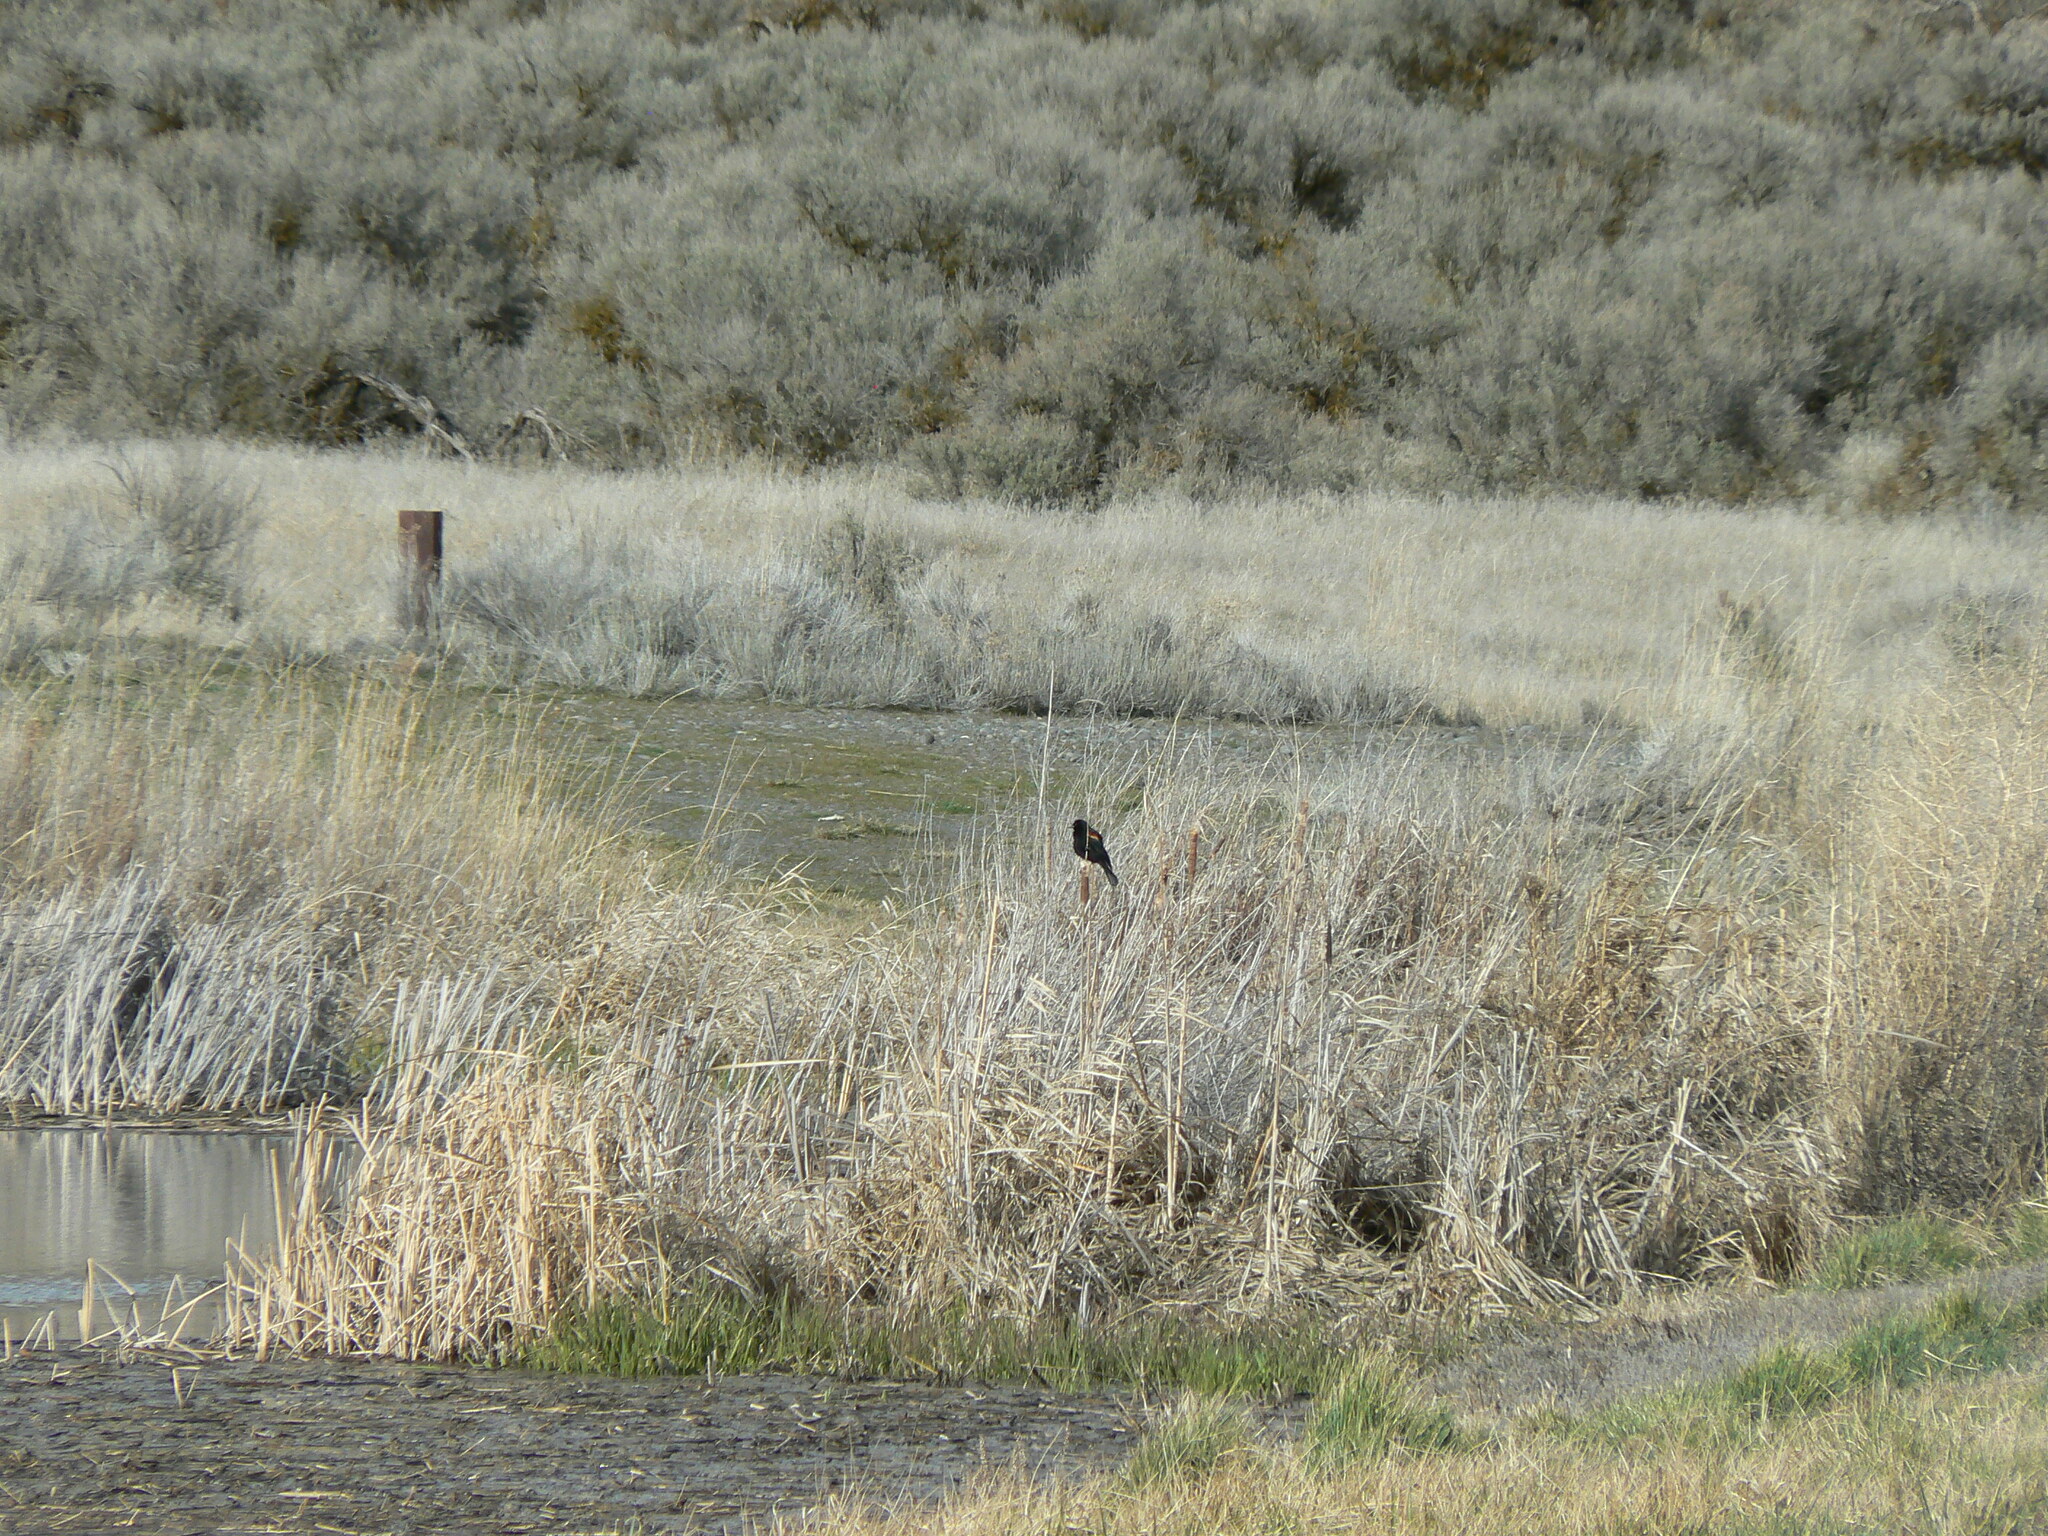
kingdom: Animalia
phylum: Chordata
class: Aves
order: Passeriformes
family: Icteridae
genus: Agelaius
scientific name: Agelaius phoeniceus
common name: Red-winged blackbird
